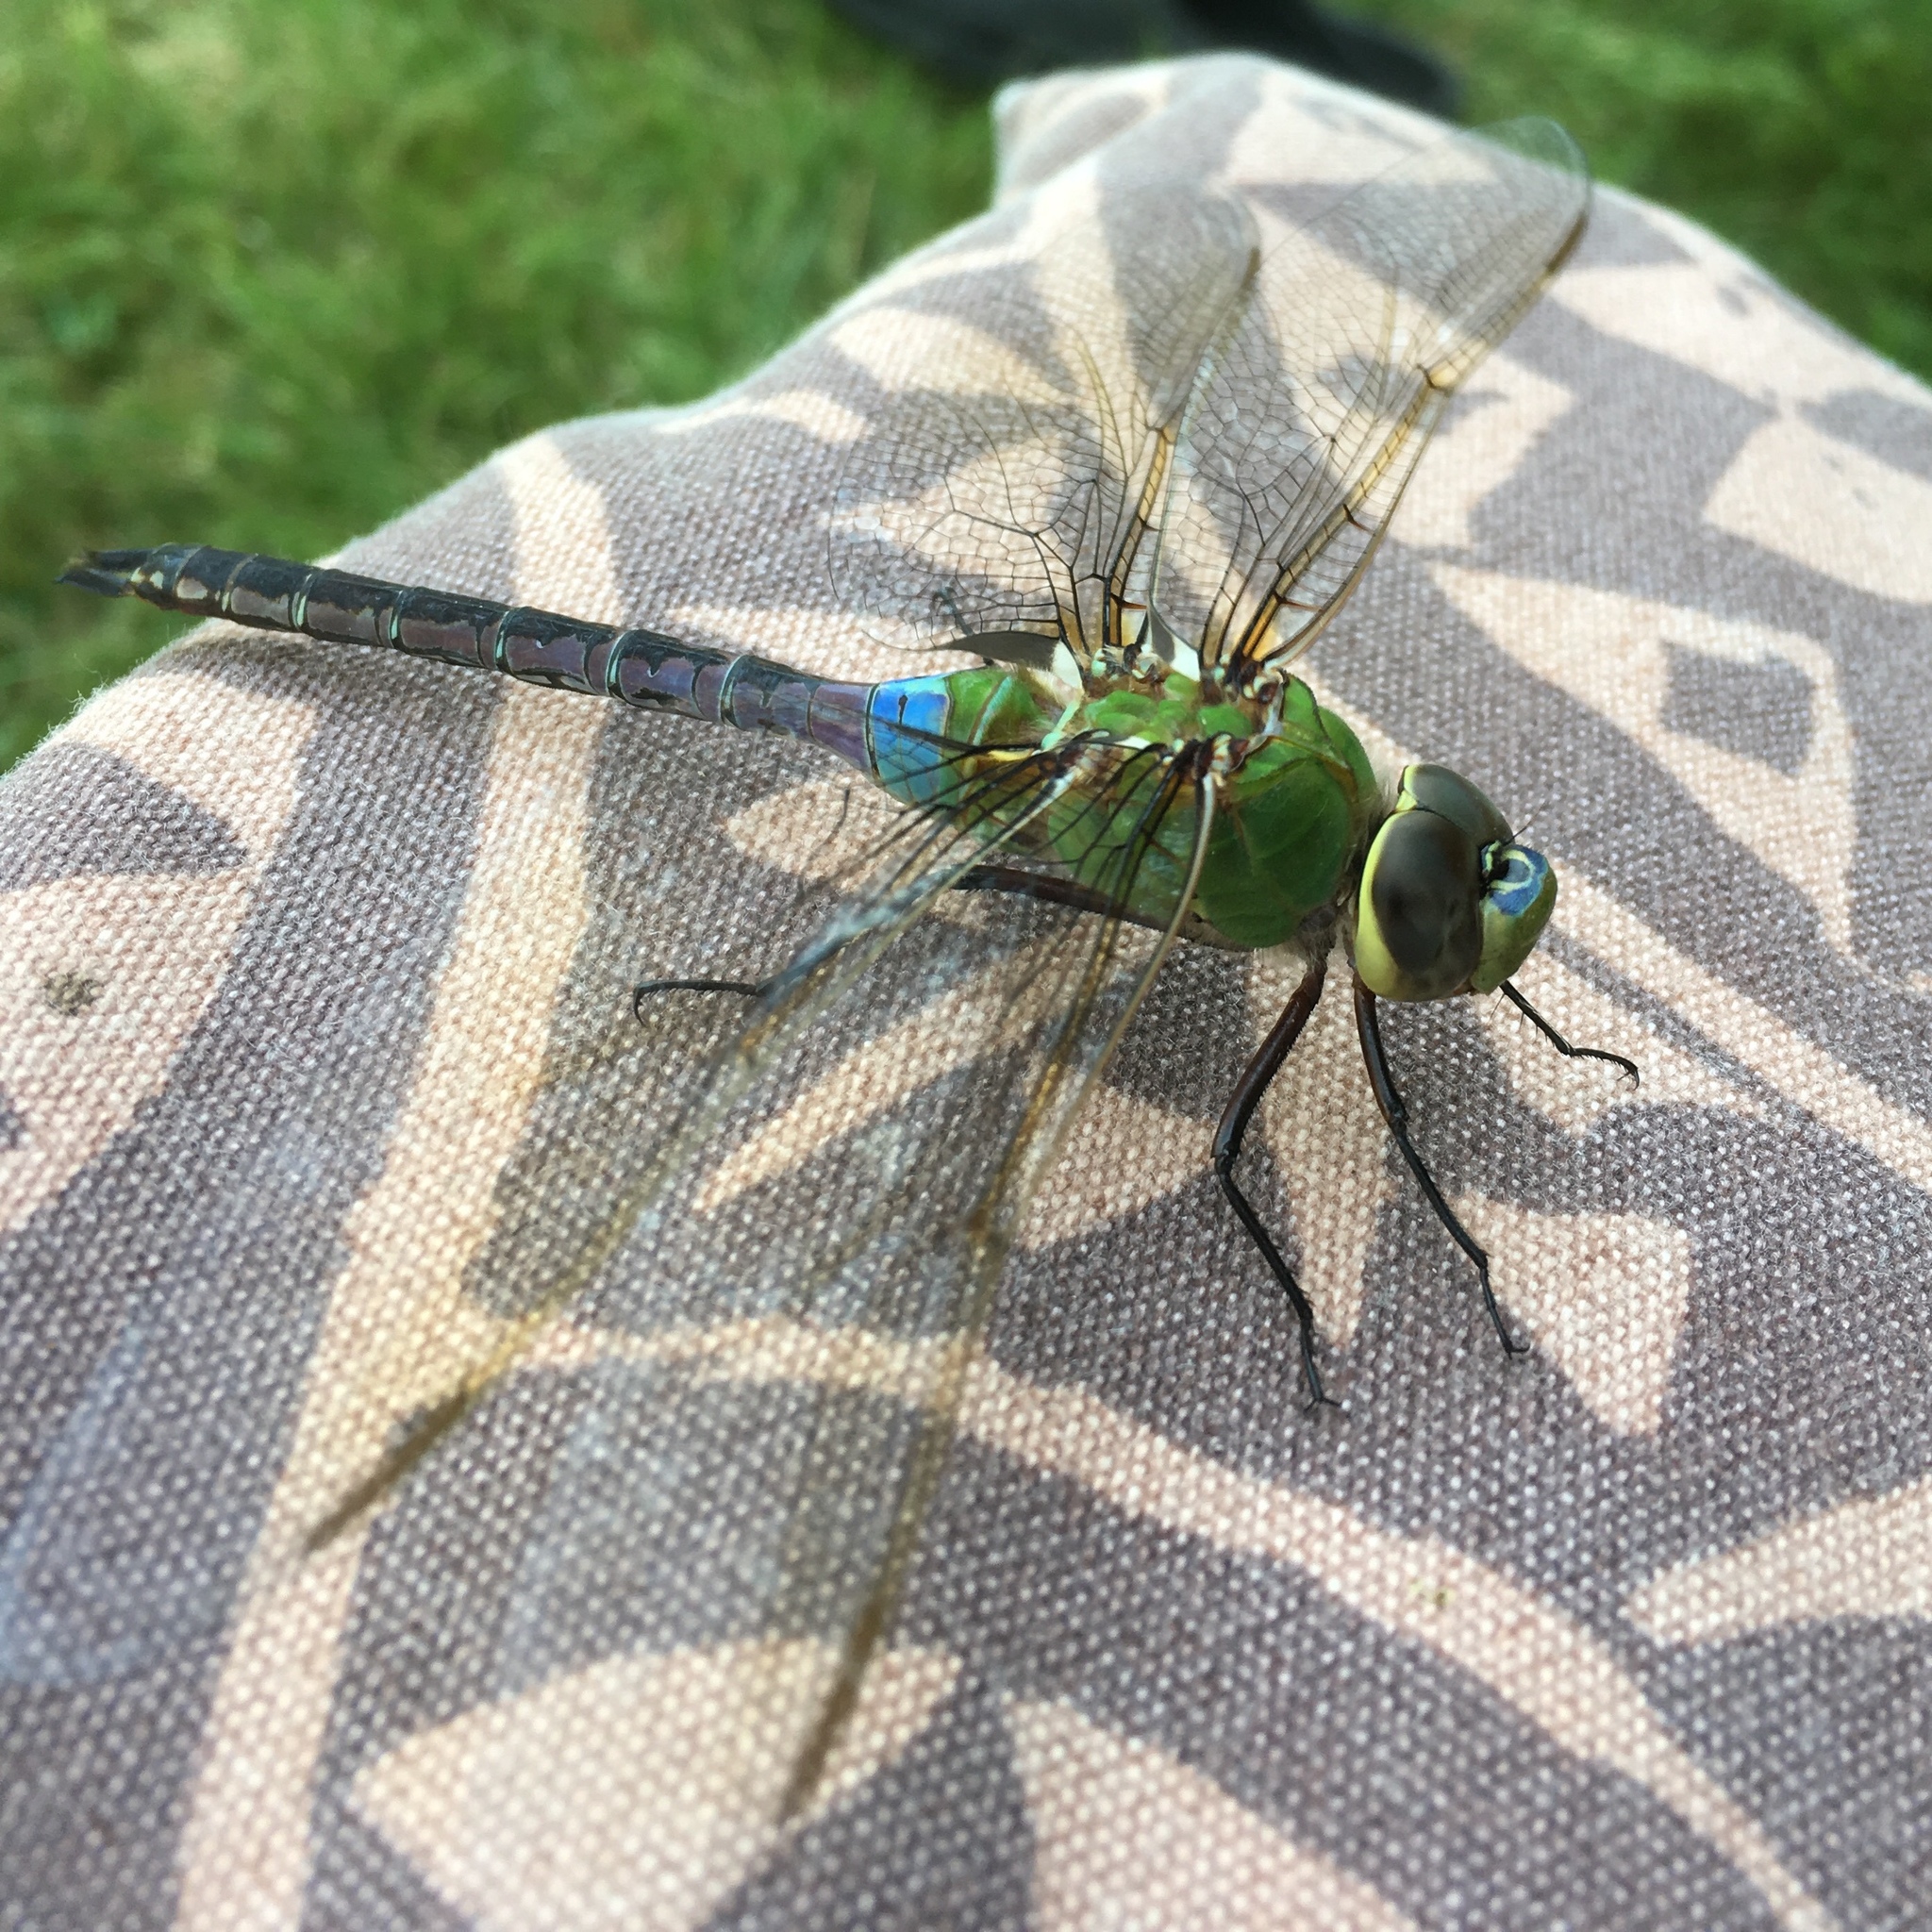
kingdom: Animalia
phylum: Arthropoda
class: Insecta
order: Odonata
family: Aeshnidae
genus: Anax
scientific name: Anax junius
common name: Common green darner
